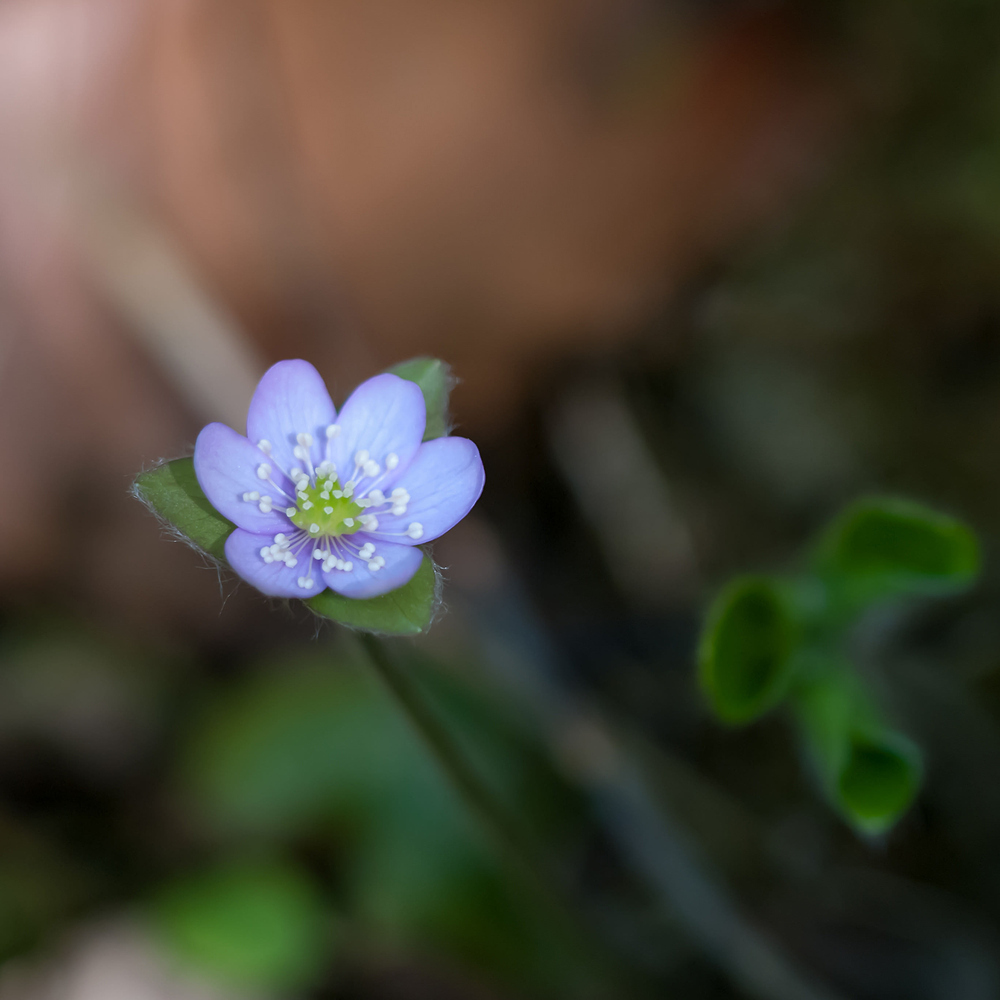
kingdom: Plantae
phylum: Tracheophyta
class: Magnoliopsida
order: Ranunculales
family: Ranunculaceae
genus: Hepatica
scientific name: Hepatica nobilis
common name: Liverleaf
